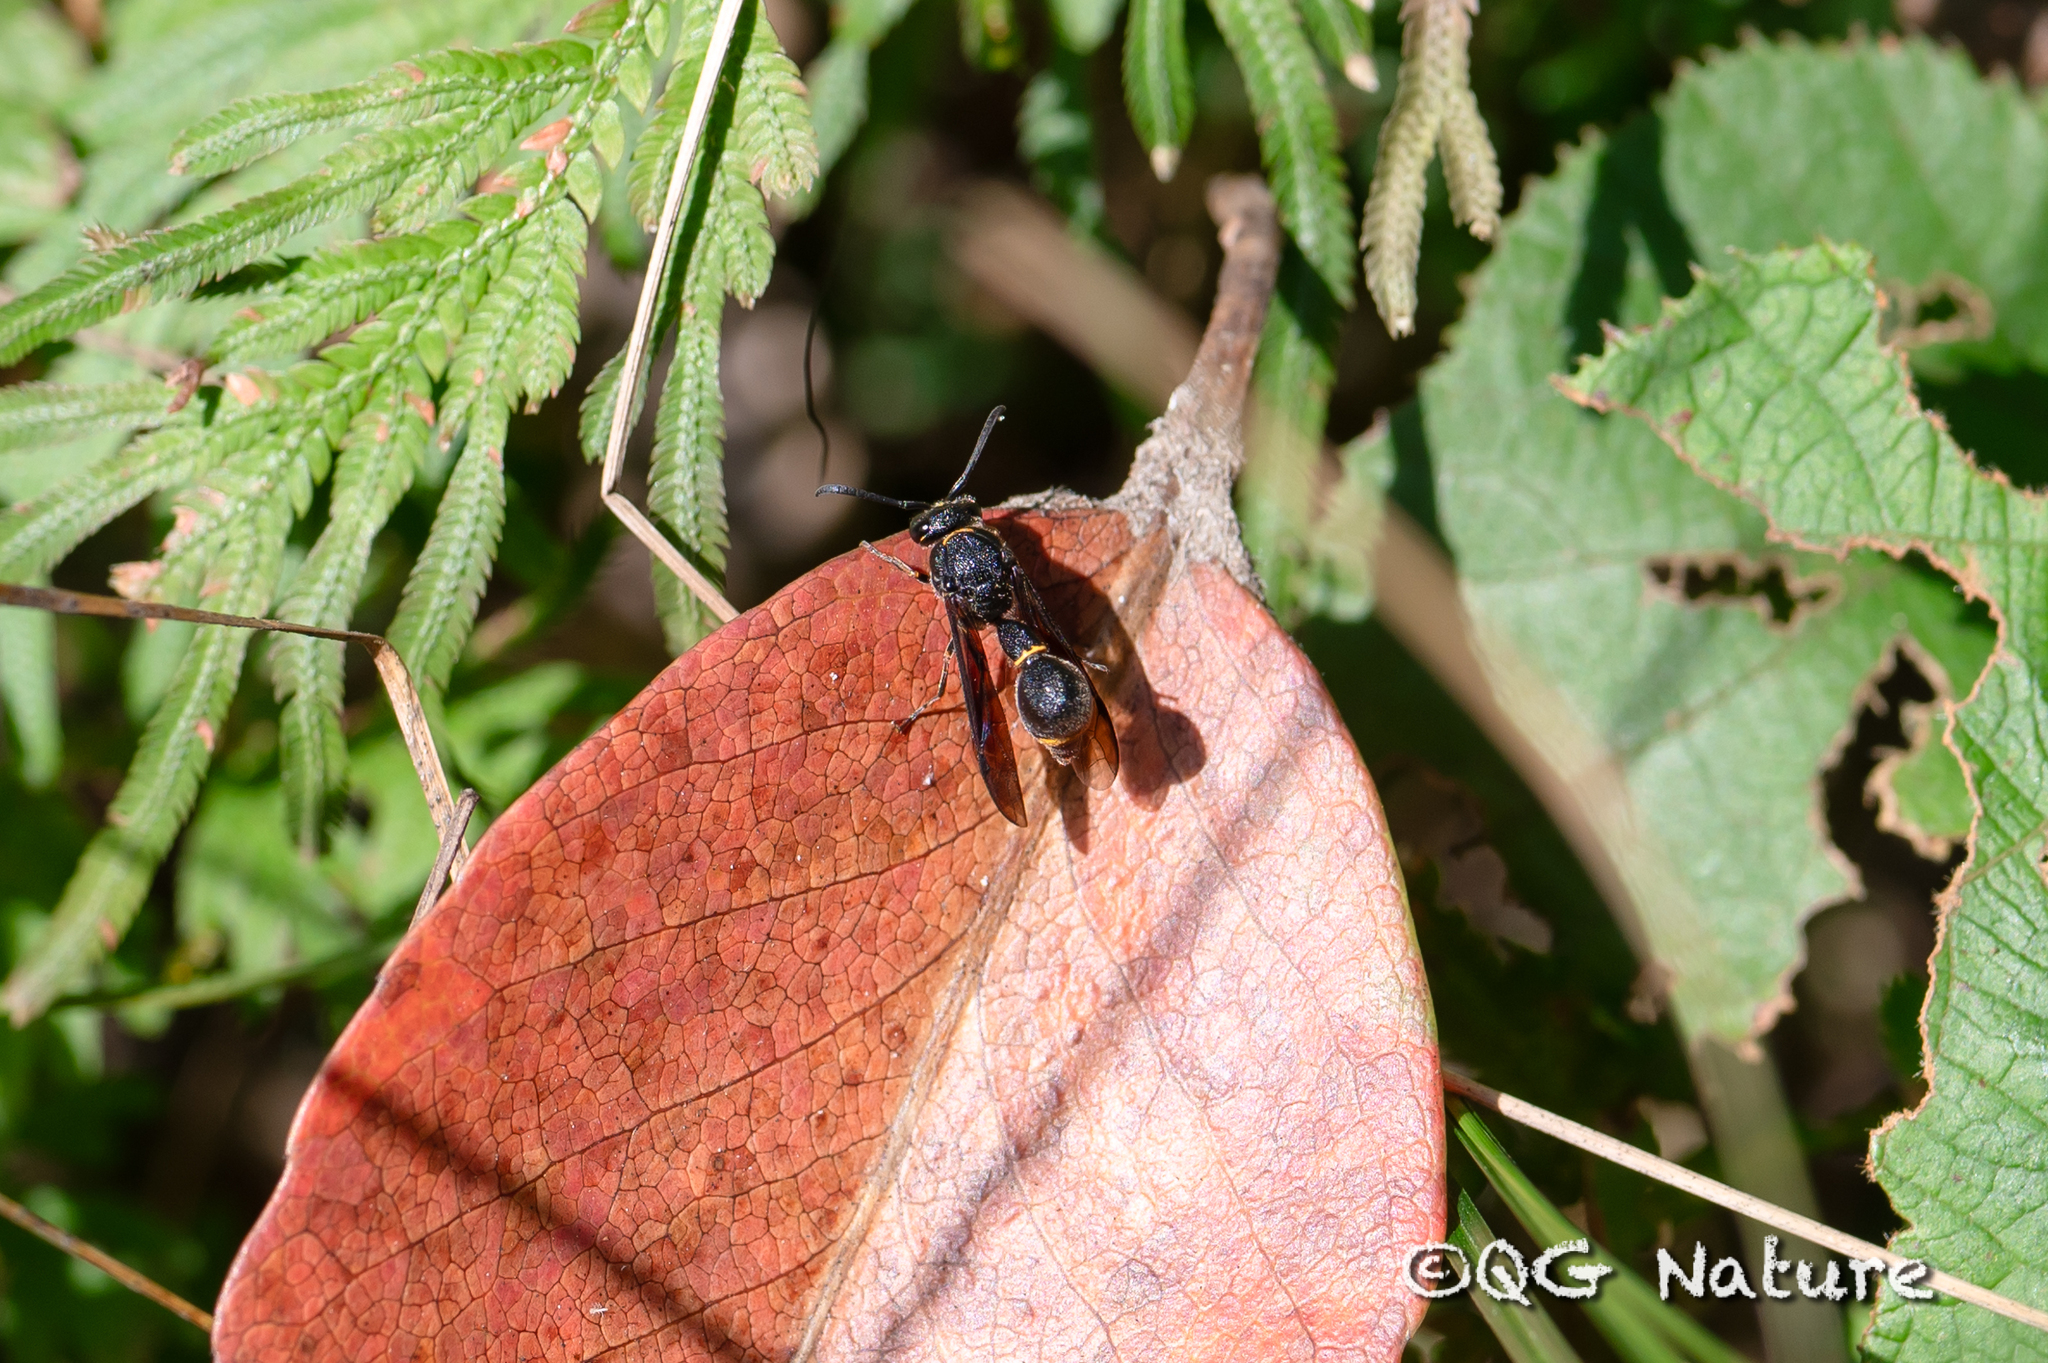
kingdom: Animalia
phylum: Arthropoda
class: Insecta
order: Hymenoptera
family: Vespidae
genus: Eumenes
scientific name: Eumenes punctatus
